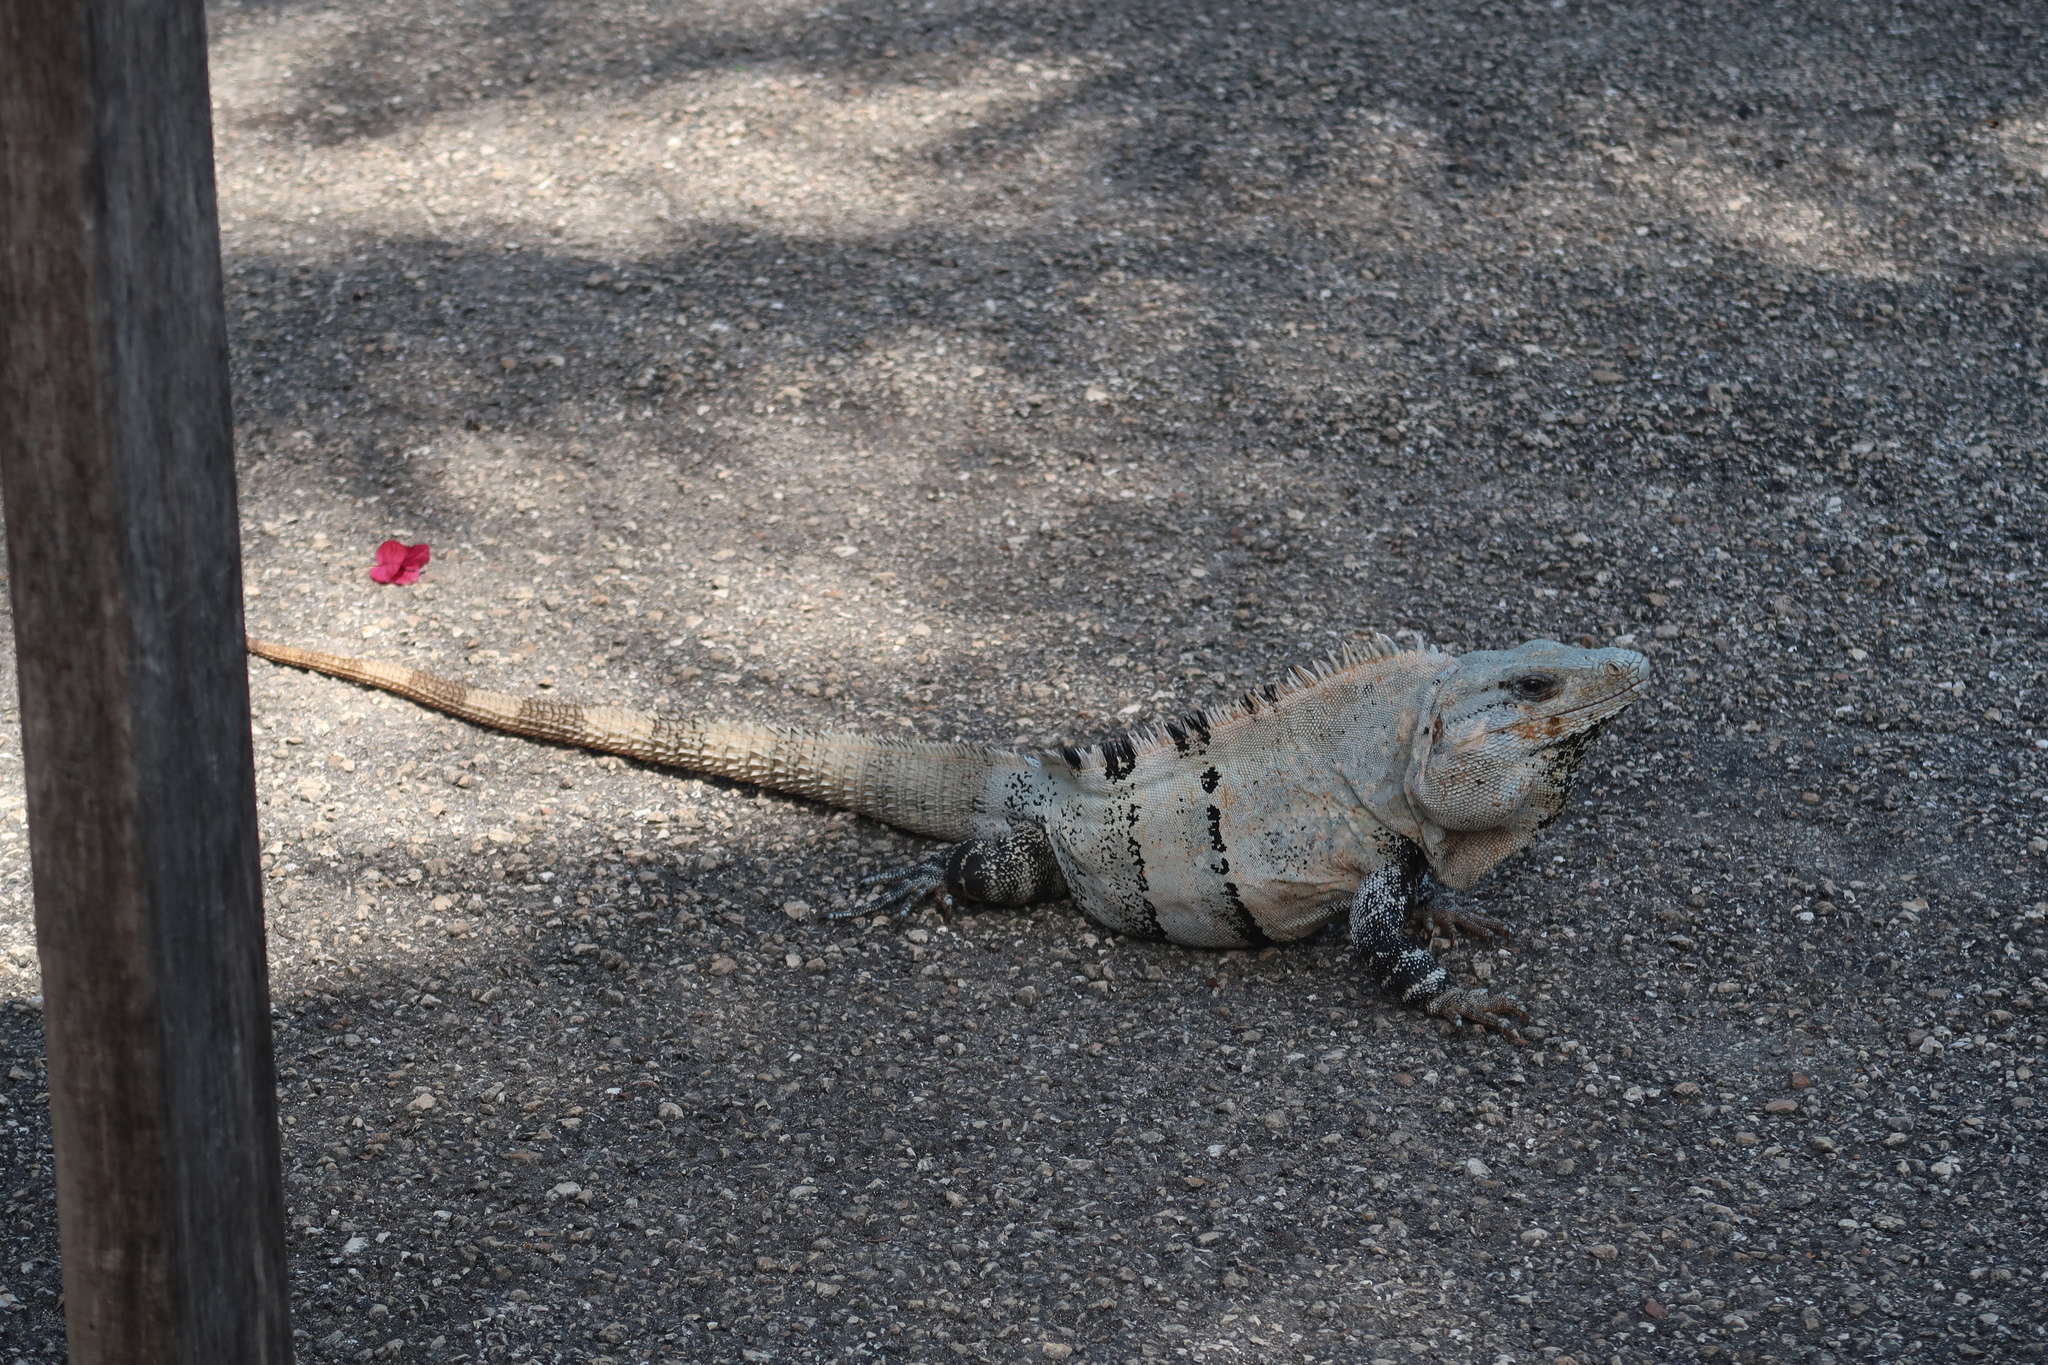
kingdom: Animalia
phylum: Chordata
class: Squamata
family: Iguanidae
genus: Ctenosaura
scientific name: Ctenosaura similis
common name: Black spiny-tailed iguana
